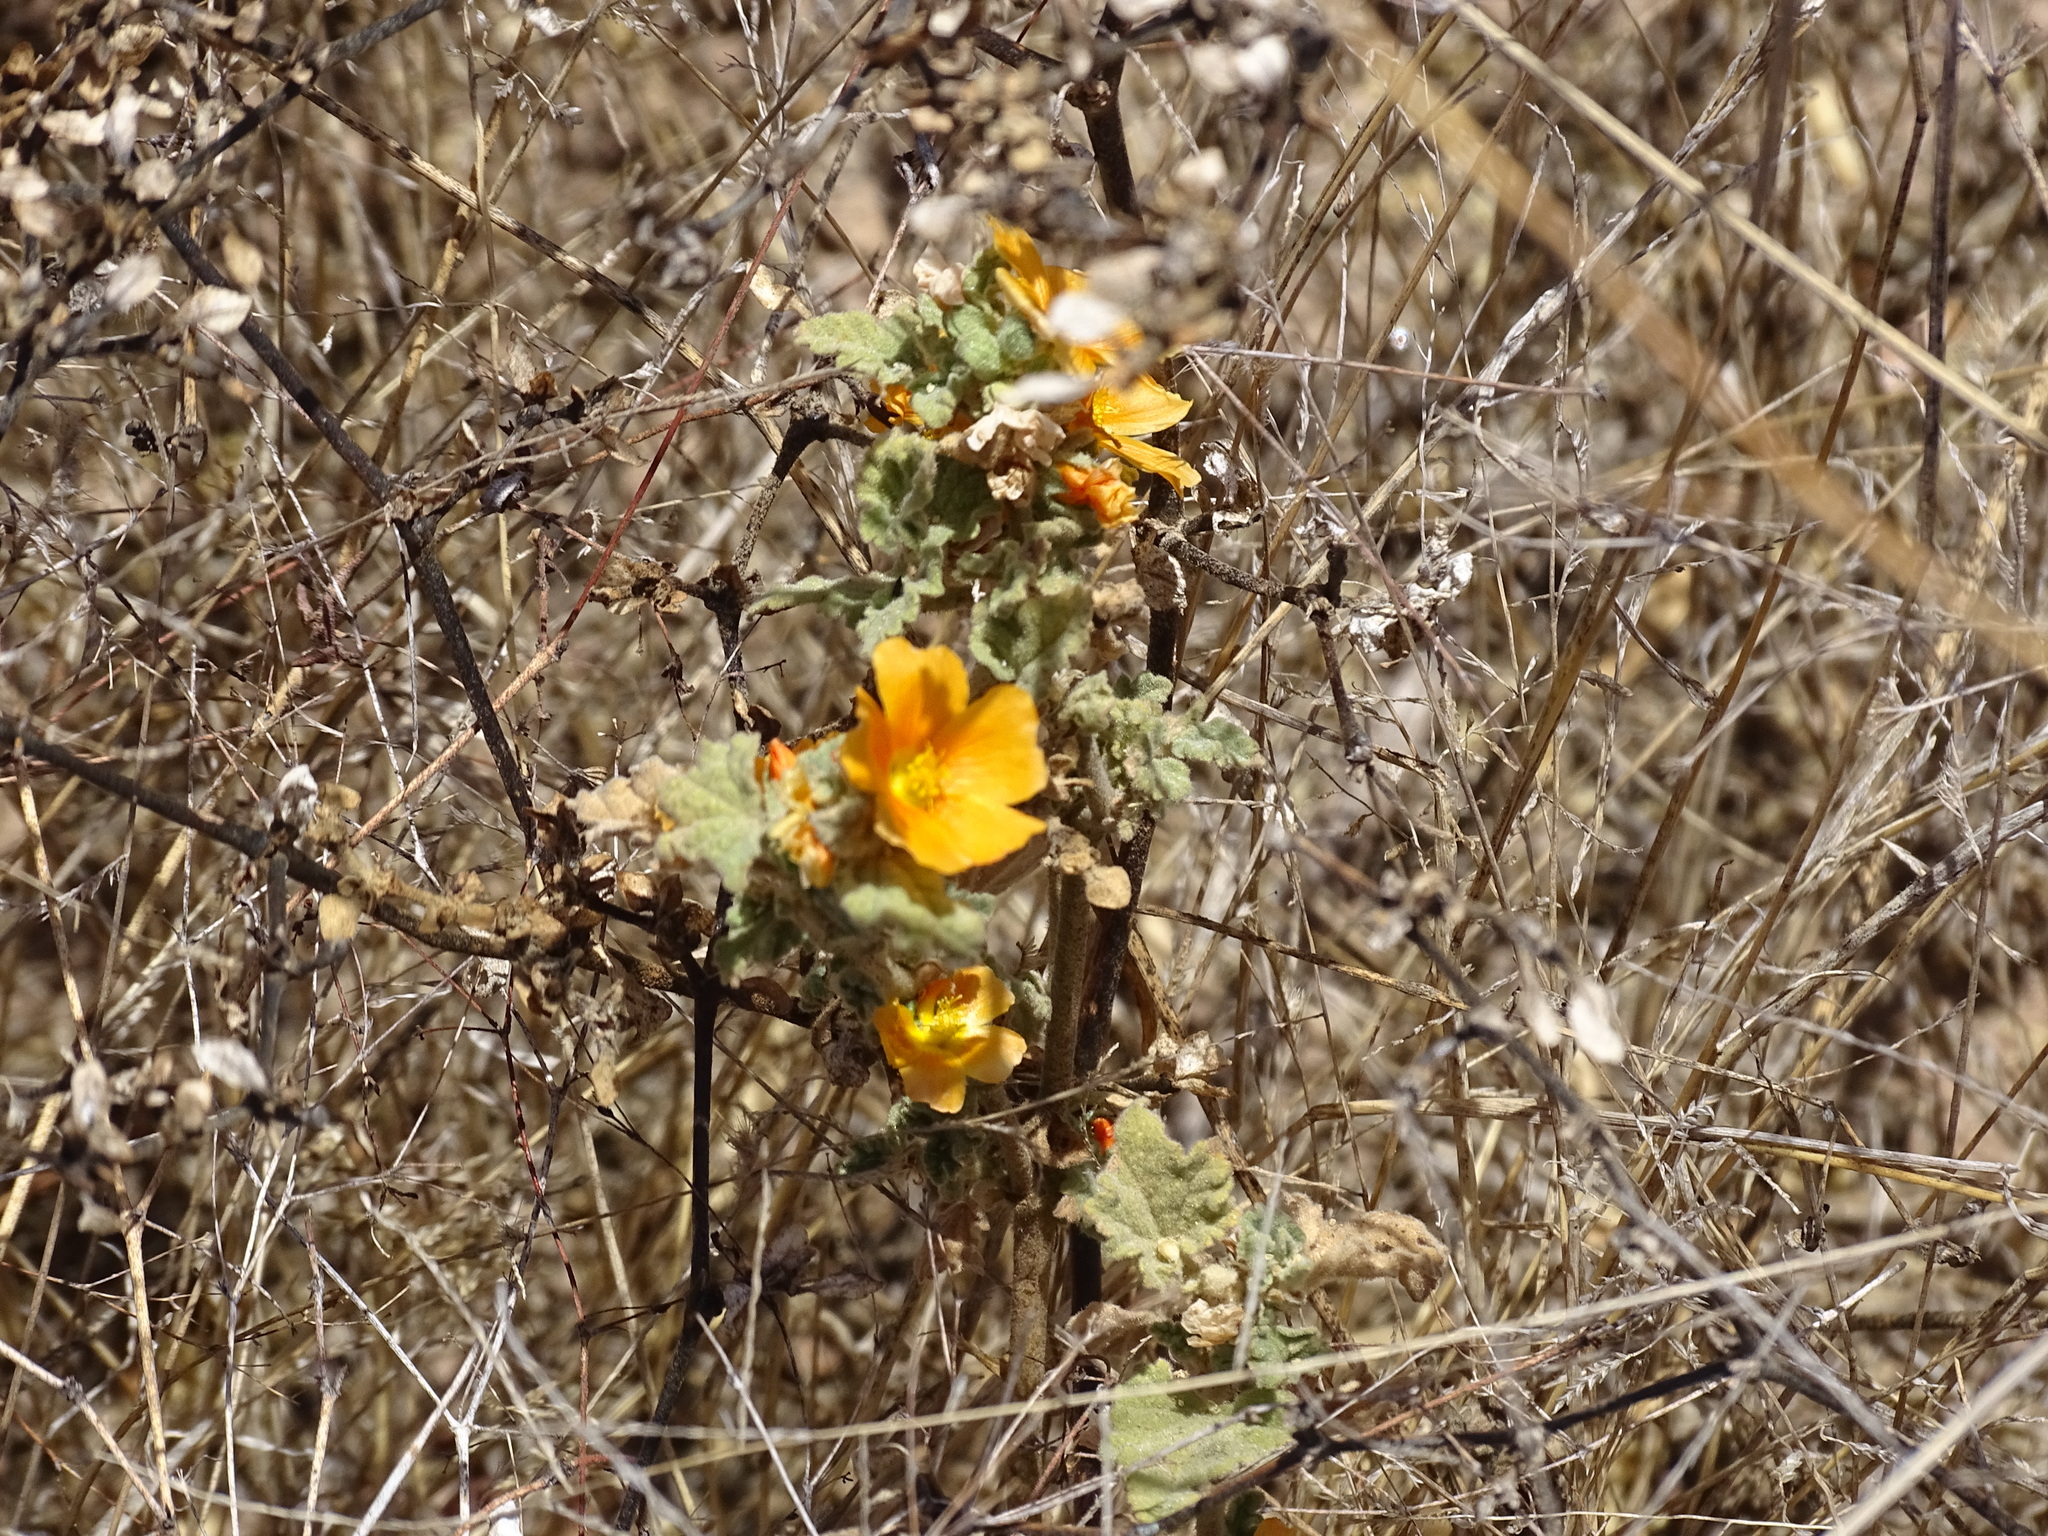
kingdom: Plantae
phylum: Tracheophyta
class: Magnoliopsida
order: Malvales
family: Malvaceae
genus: Sphaeralcea
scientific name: Sphaeralcea coulteri
